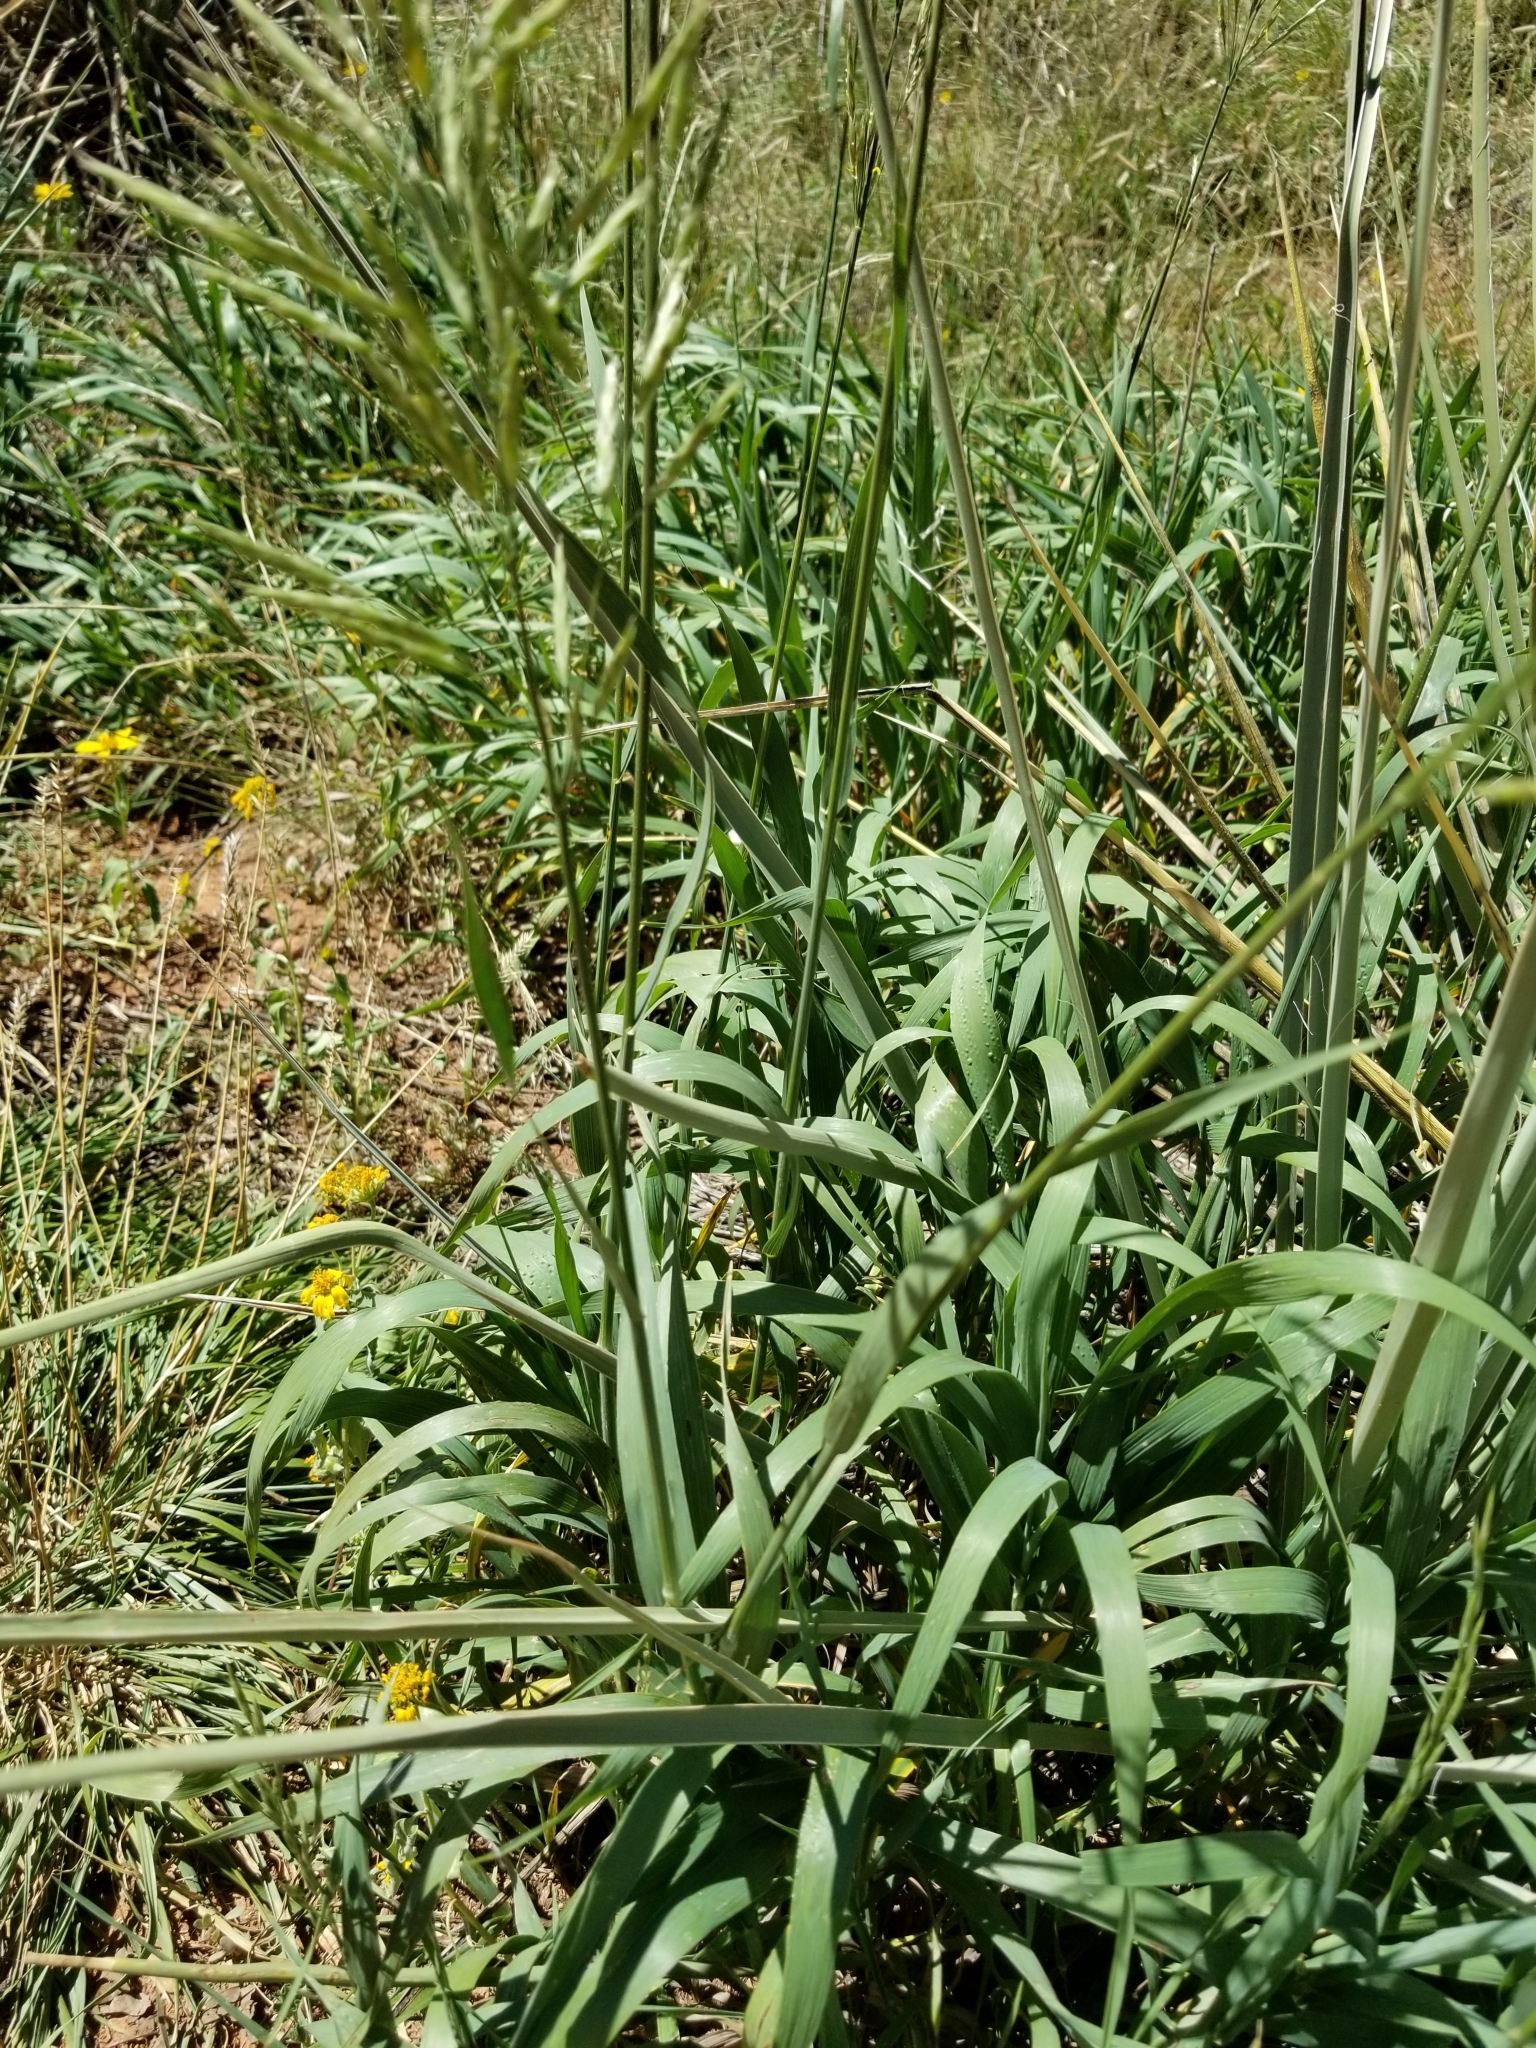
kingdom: Plantae
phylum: Tracheophyta
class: Liliopsida
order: Poales
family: Poaceae
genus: Bromus
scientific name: Bromus inermis
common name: Smooth brome
